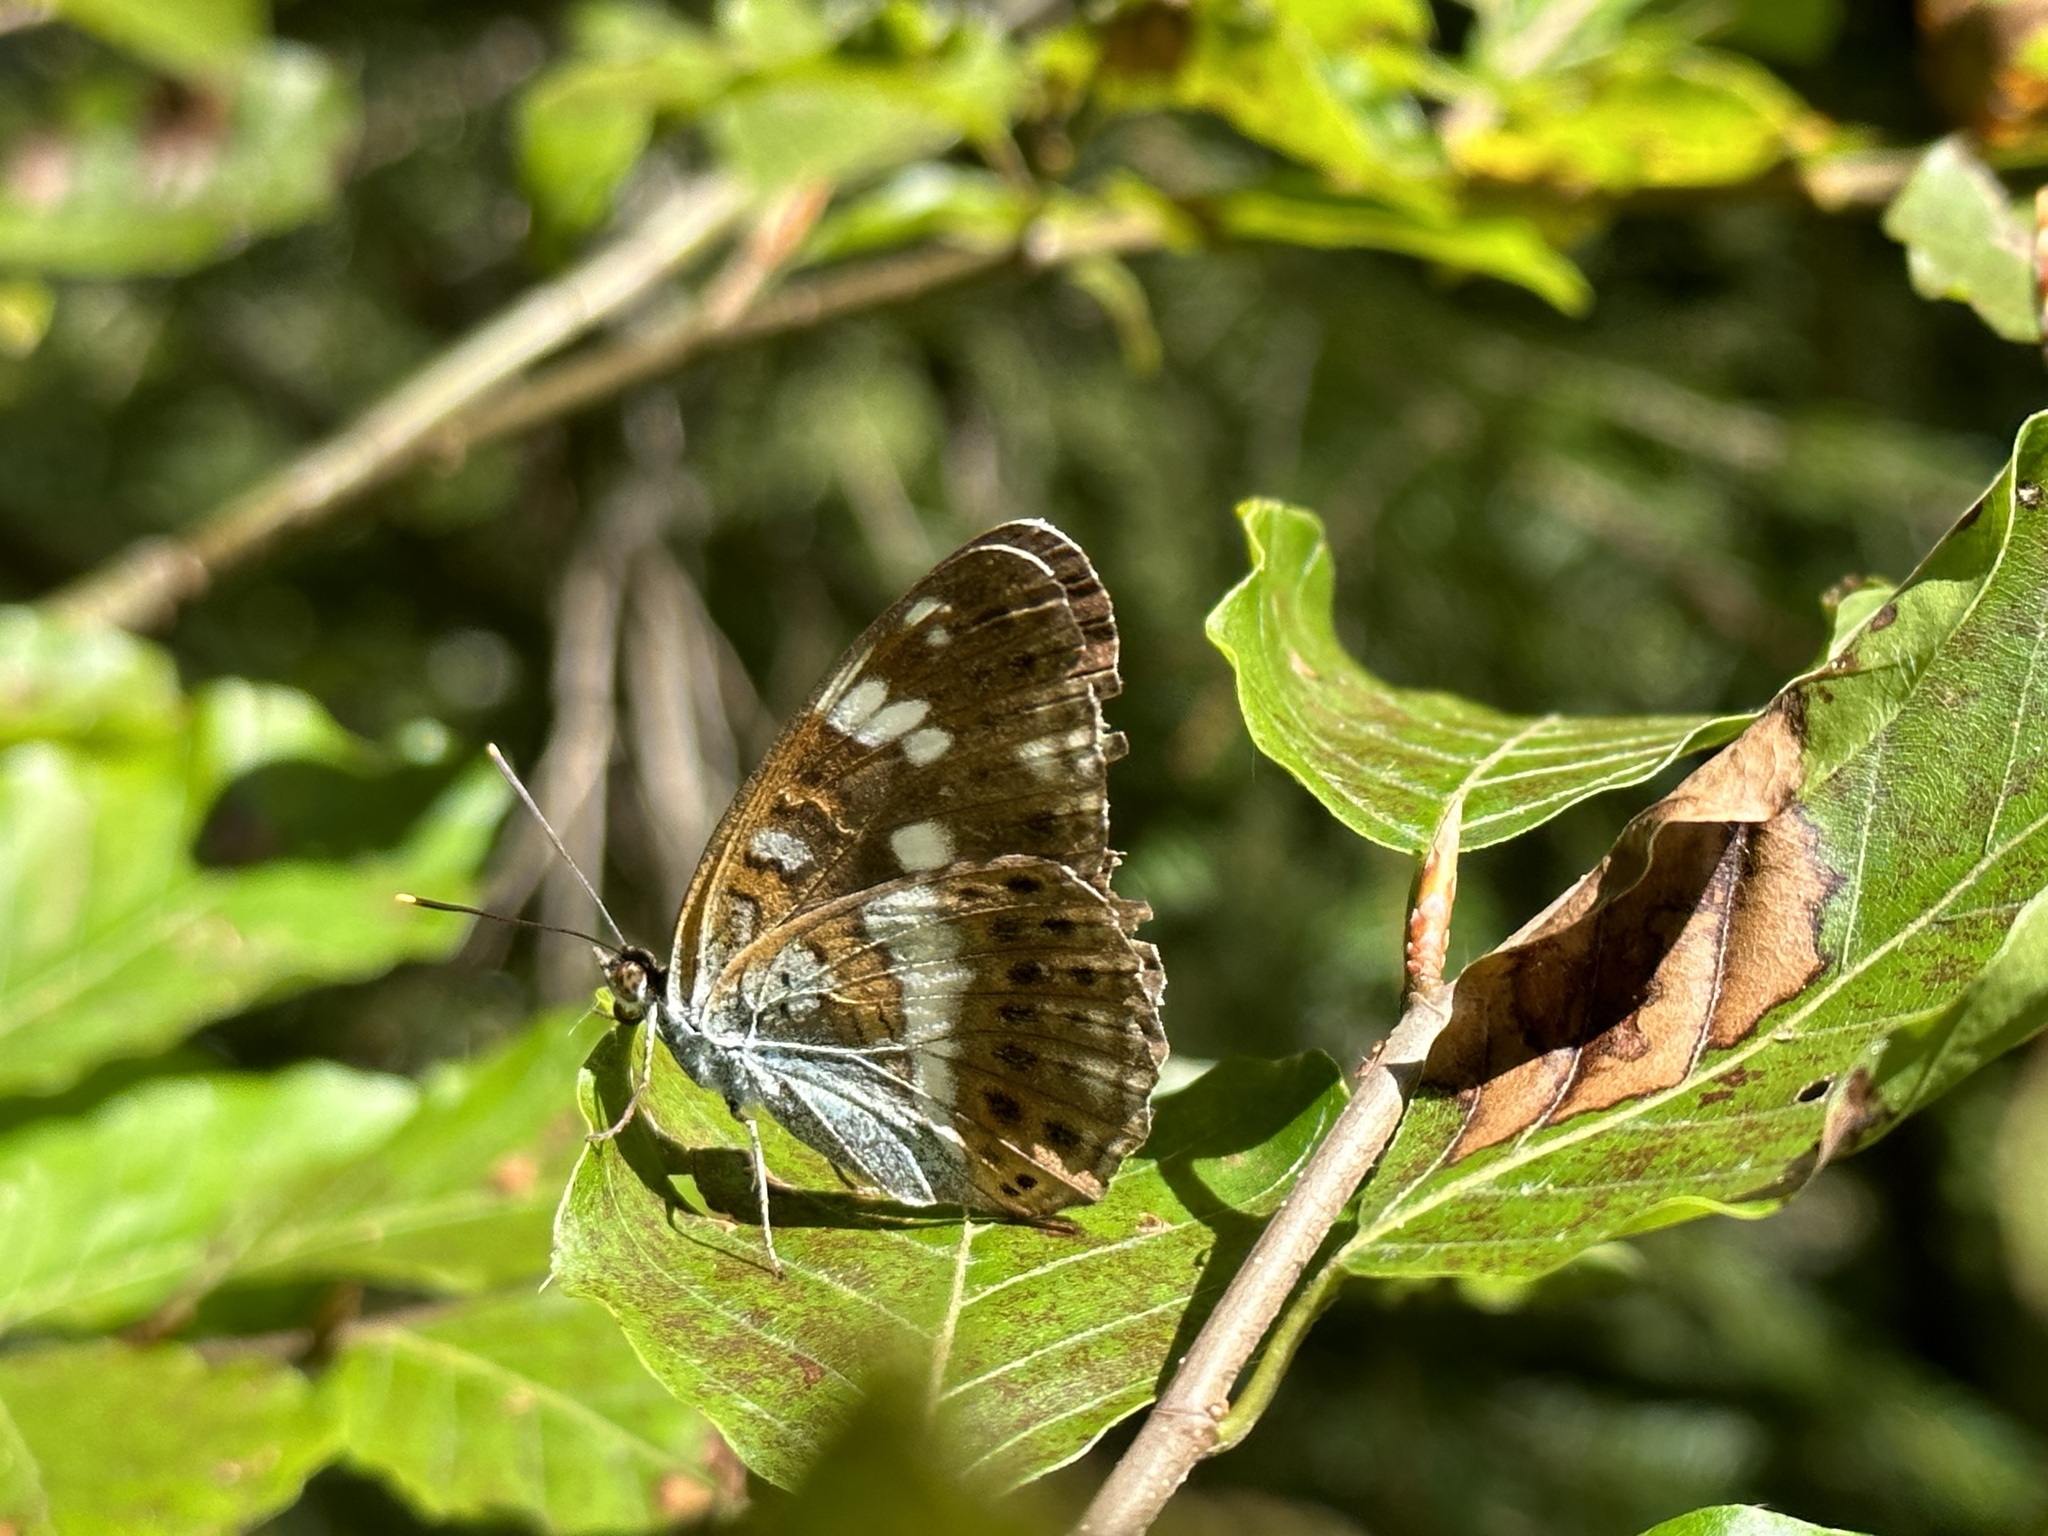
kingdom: Animalia
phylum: Arthropoda
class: Insecta
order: Lepidoptera
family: Nymphalidae
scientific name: Nymphalidae
